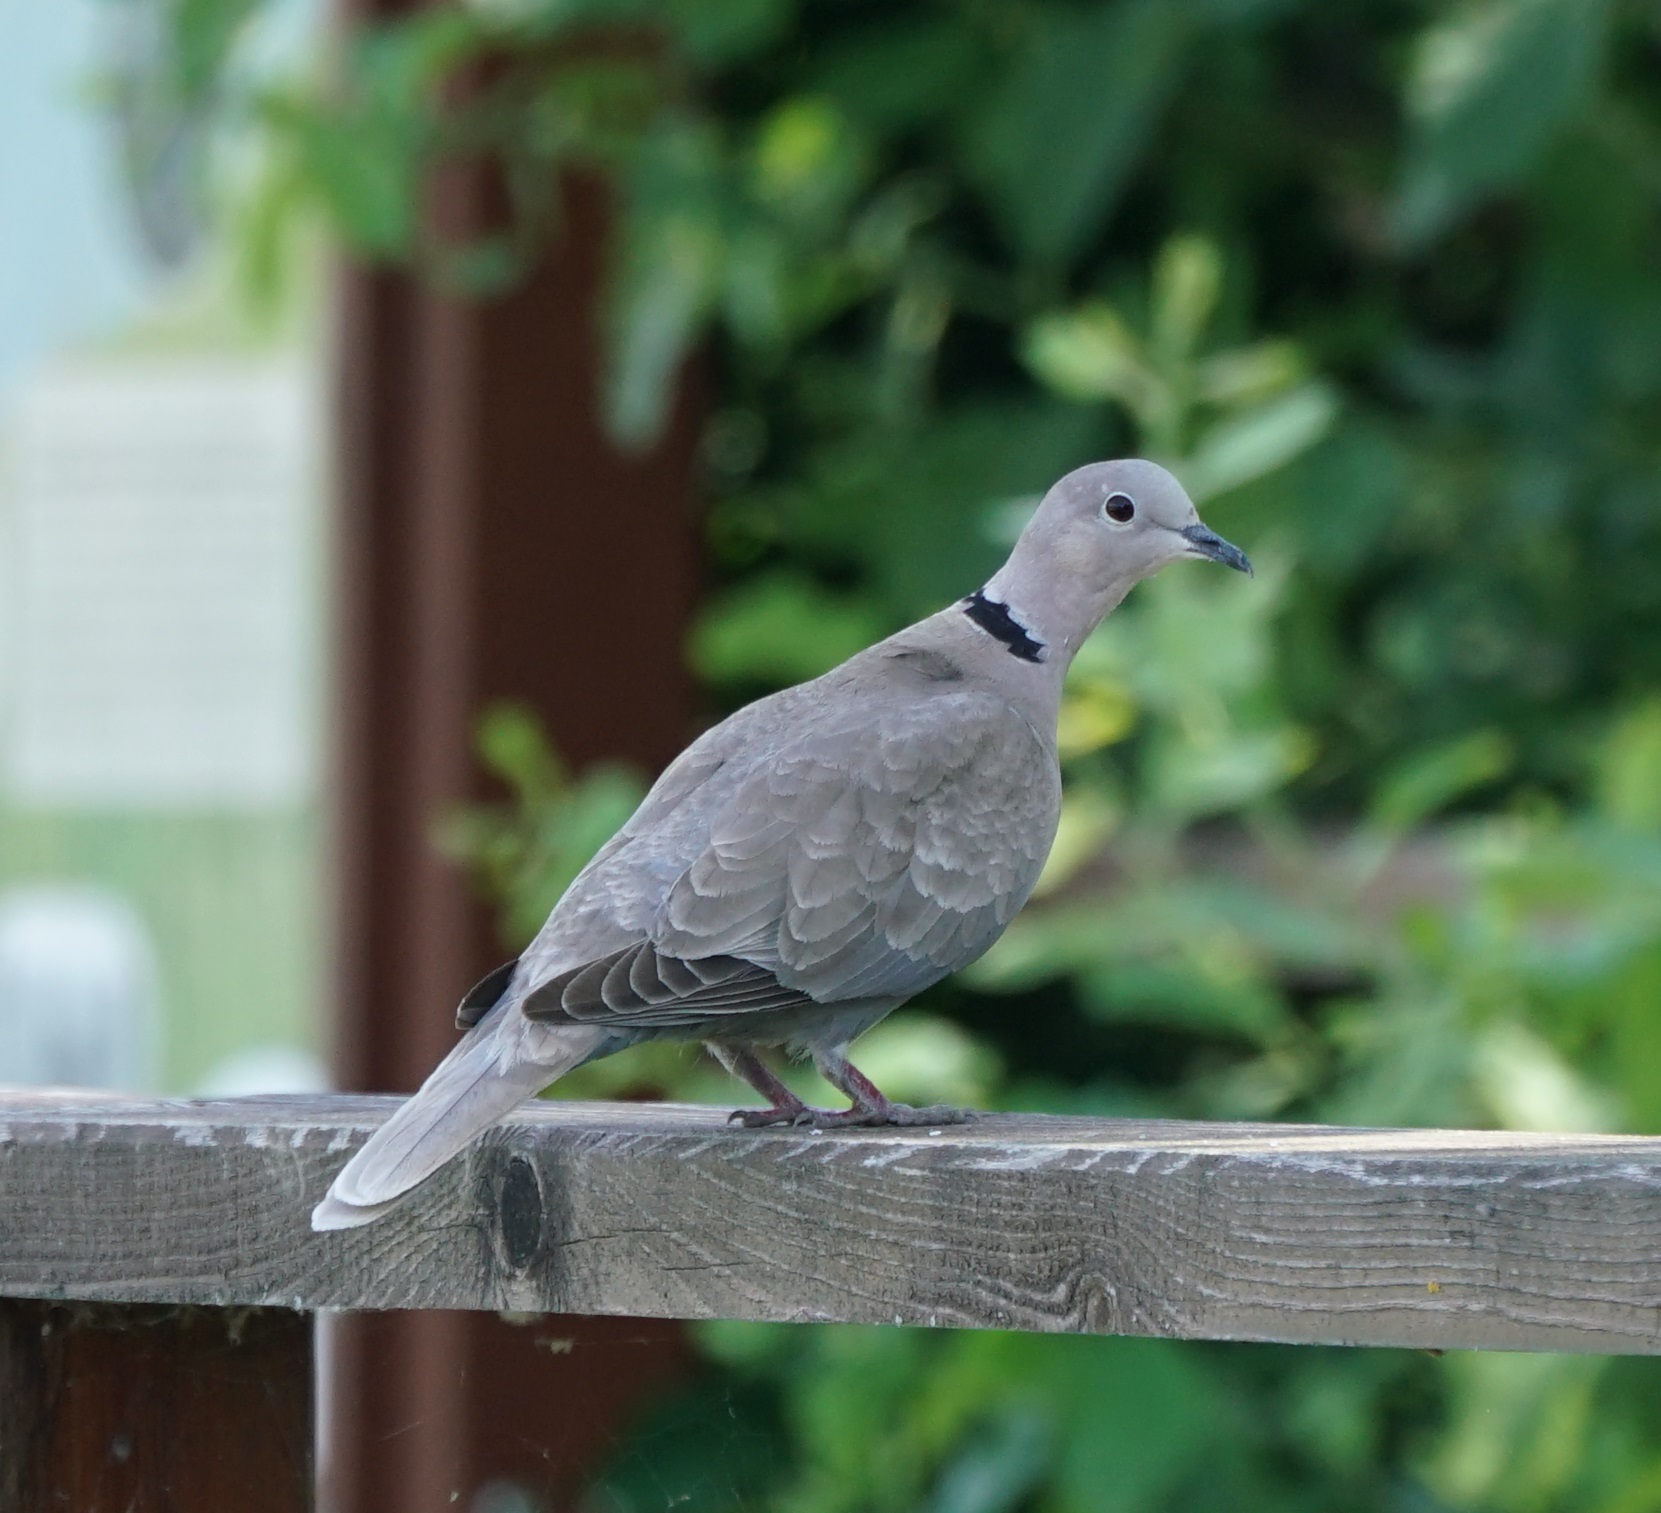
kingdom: Animalia
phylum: Chordata
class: Aves
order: Columbiformes
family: Columbidae
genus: Streptopelia
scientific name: Streptopelia decaocto
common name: Eurasian collared dove
